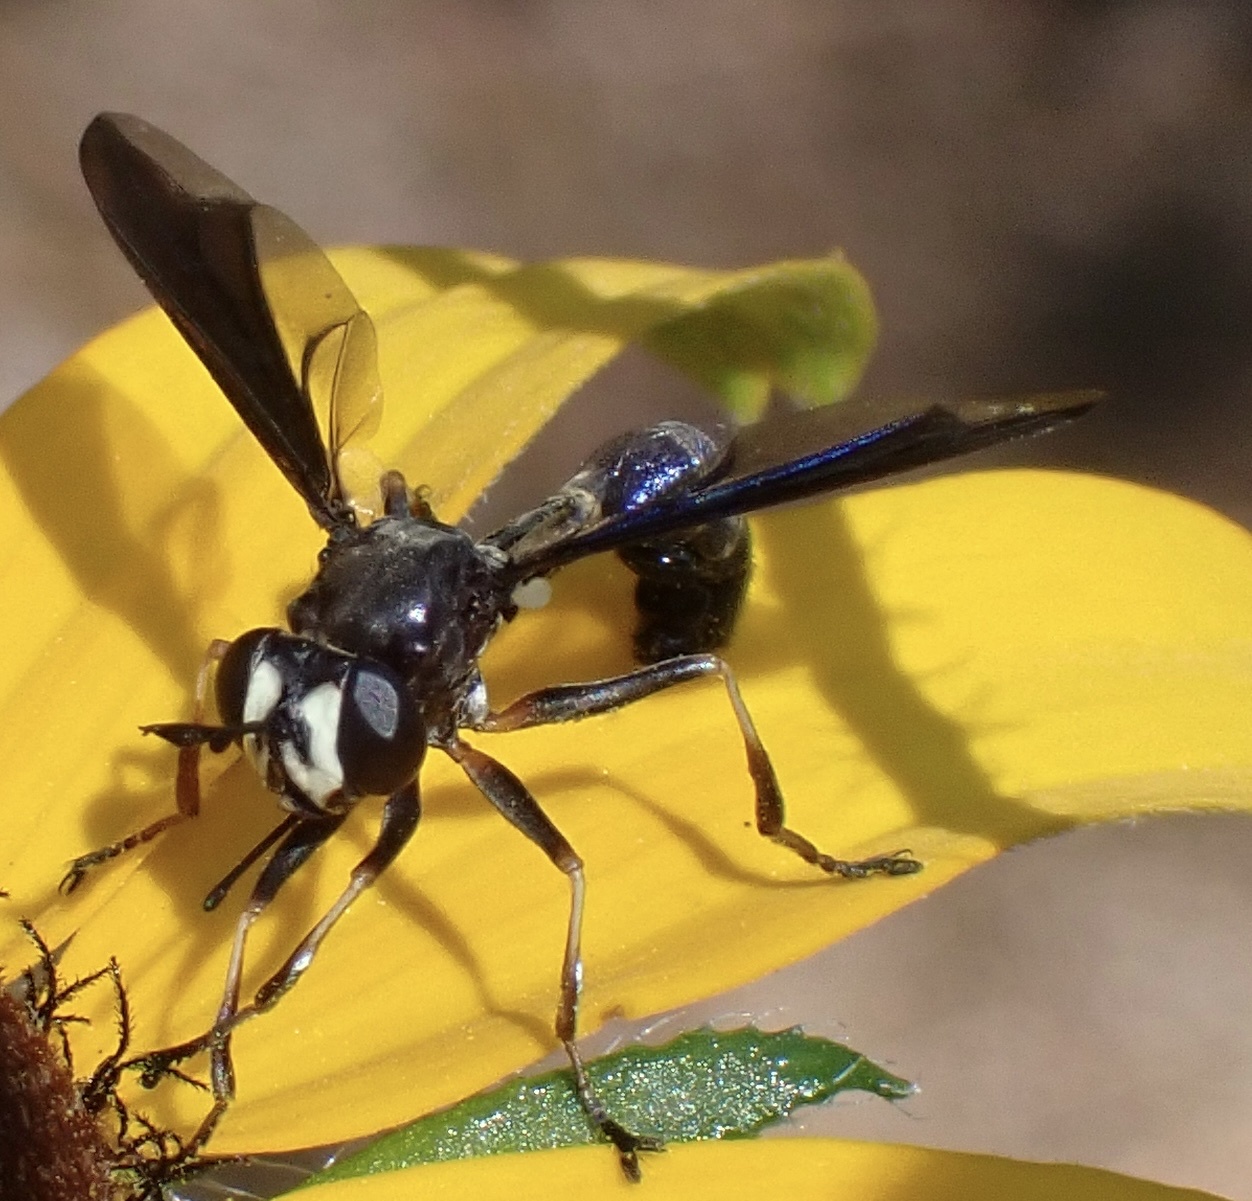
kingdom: Animalia
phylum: Arthropoda
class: Insecta
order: Diptera
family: Conopidae
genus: Physocephala
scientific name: Physocephala tibialis
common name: Common eastern physocephala
